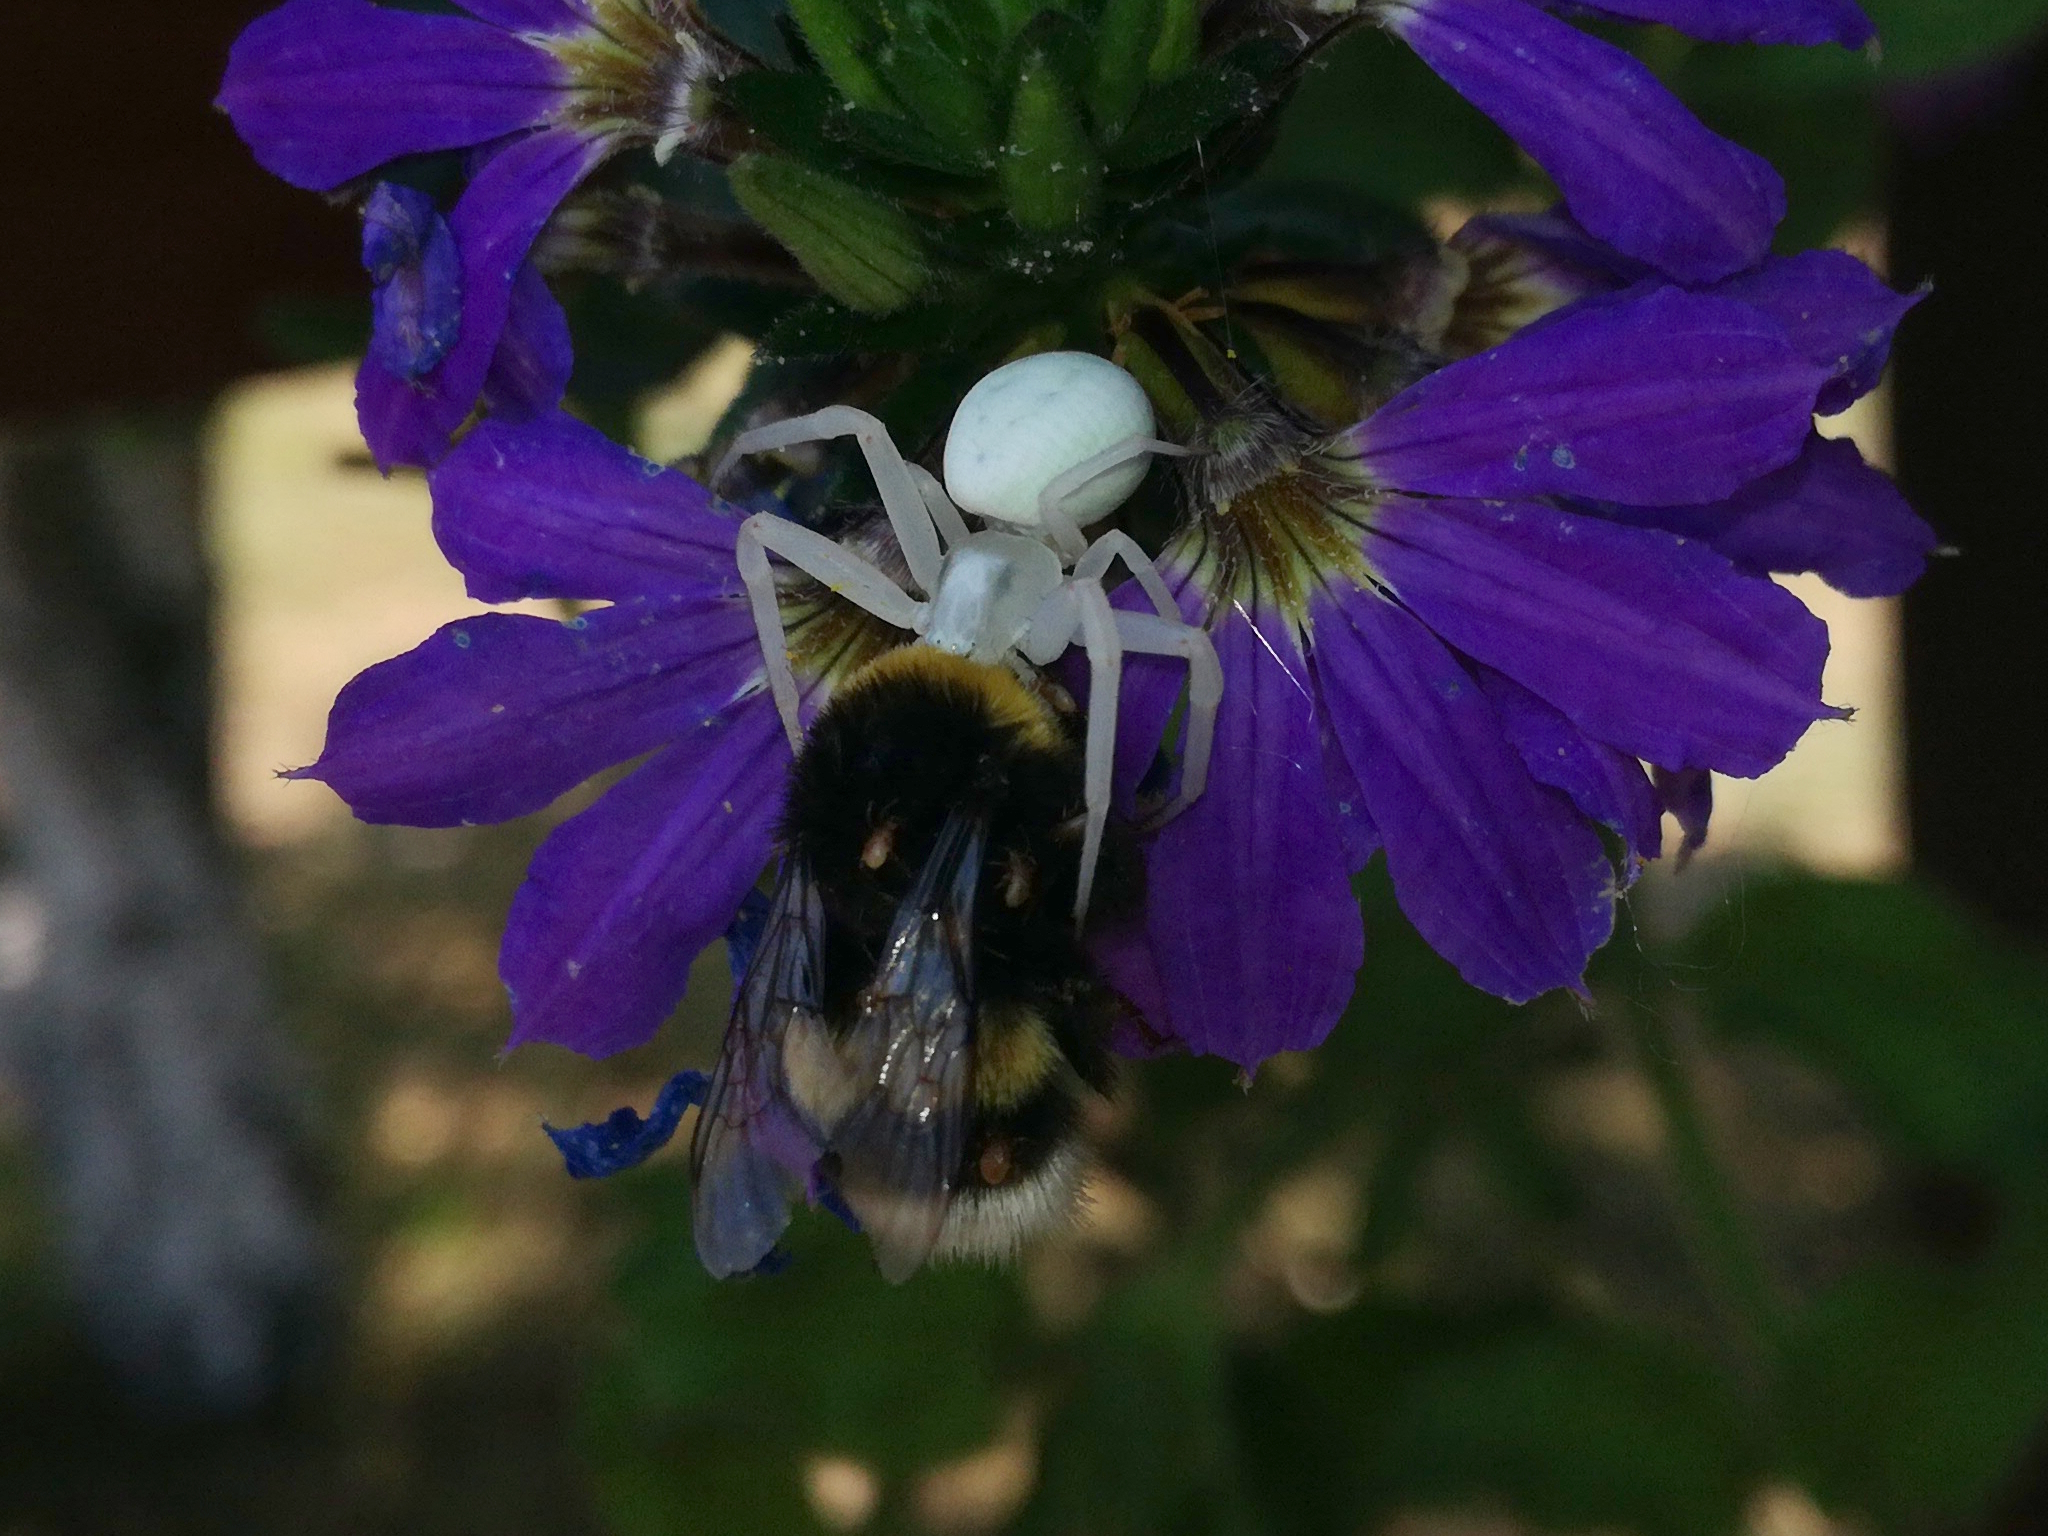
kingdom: Animalia
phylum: Arthropoda
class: Arachnida
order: Araneae
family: Thomisidae
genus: Misumena
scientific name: Misumena vatia
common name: Goldenrod crab spider
